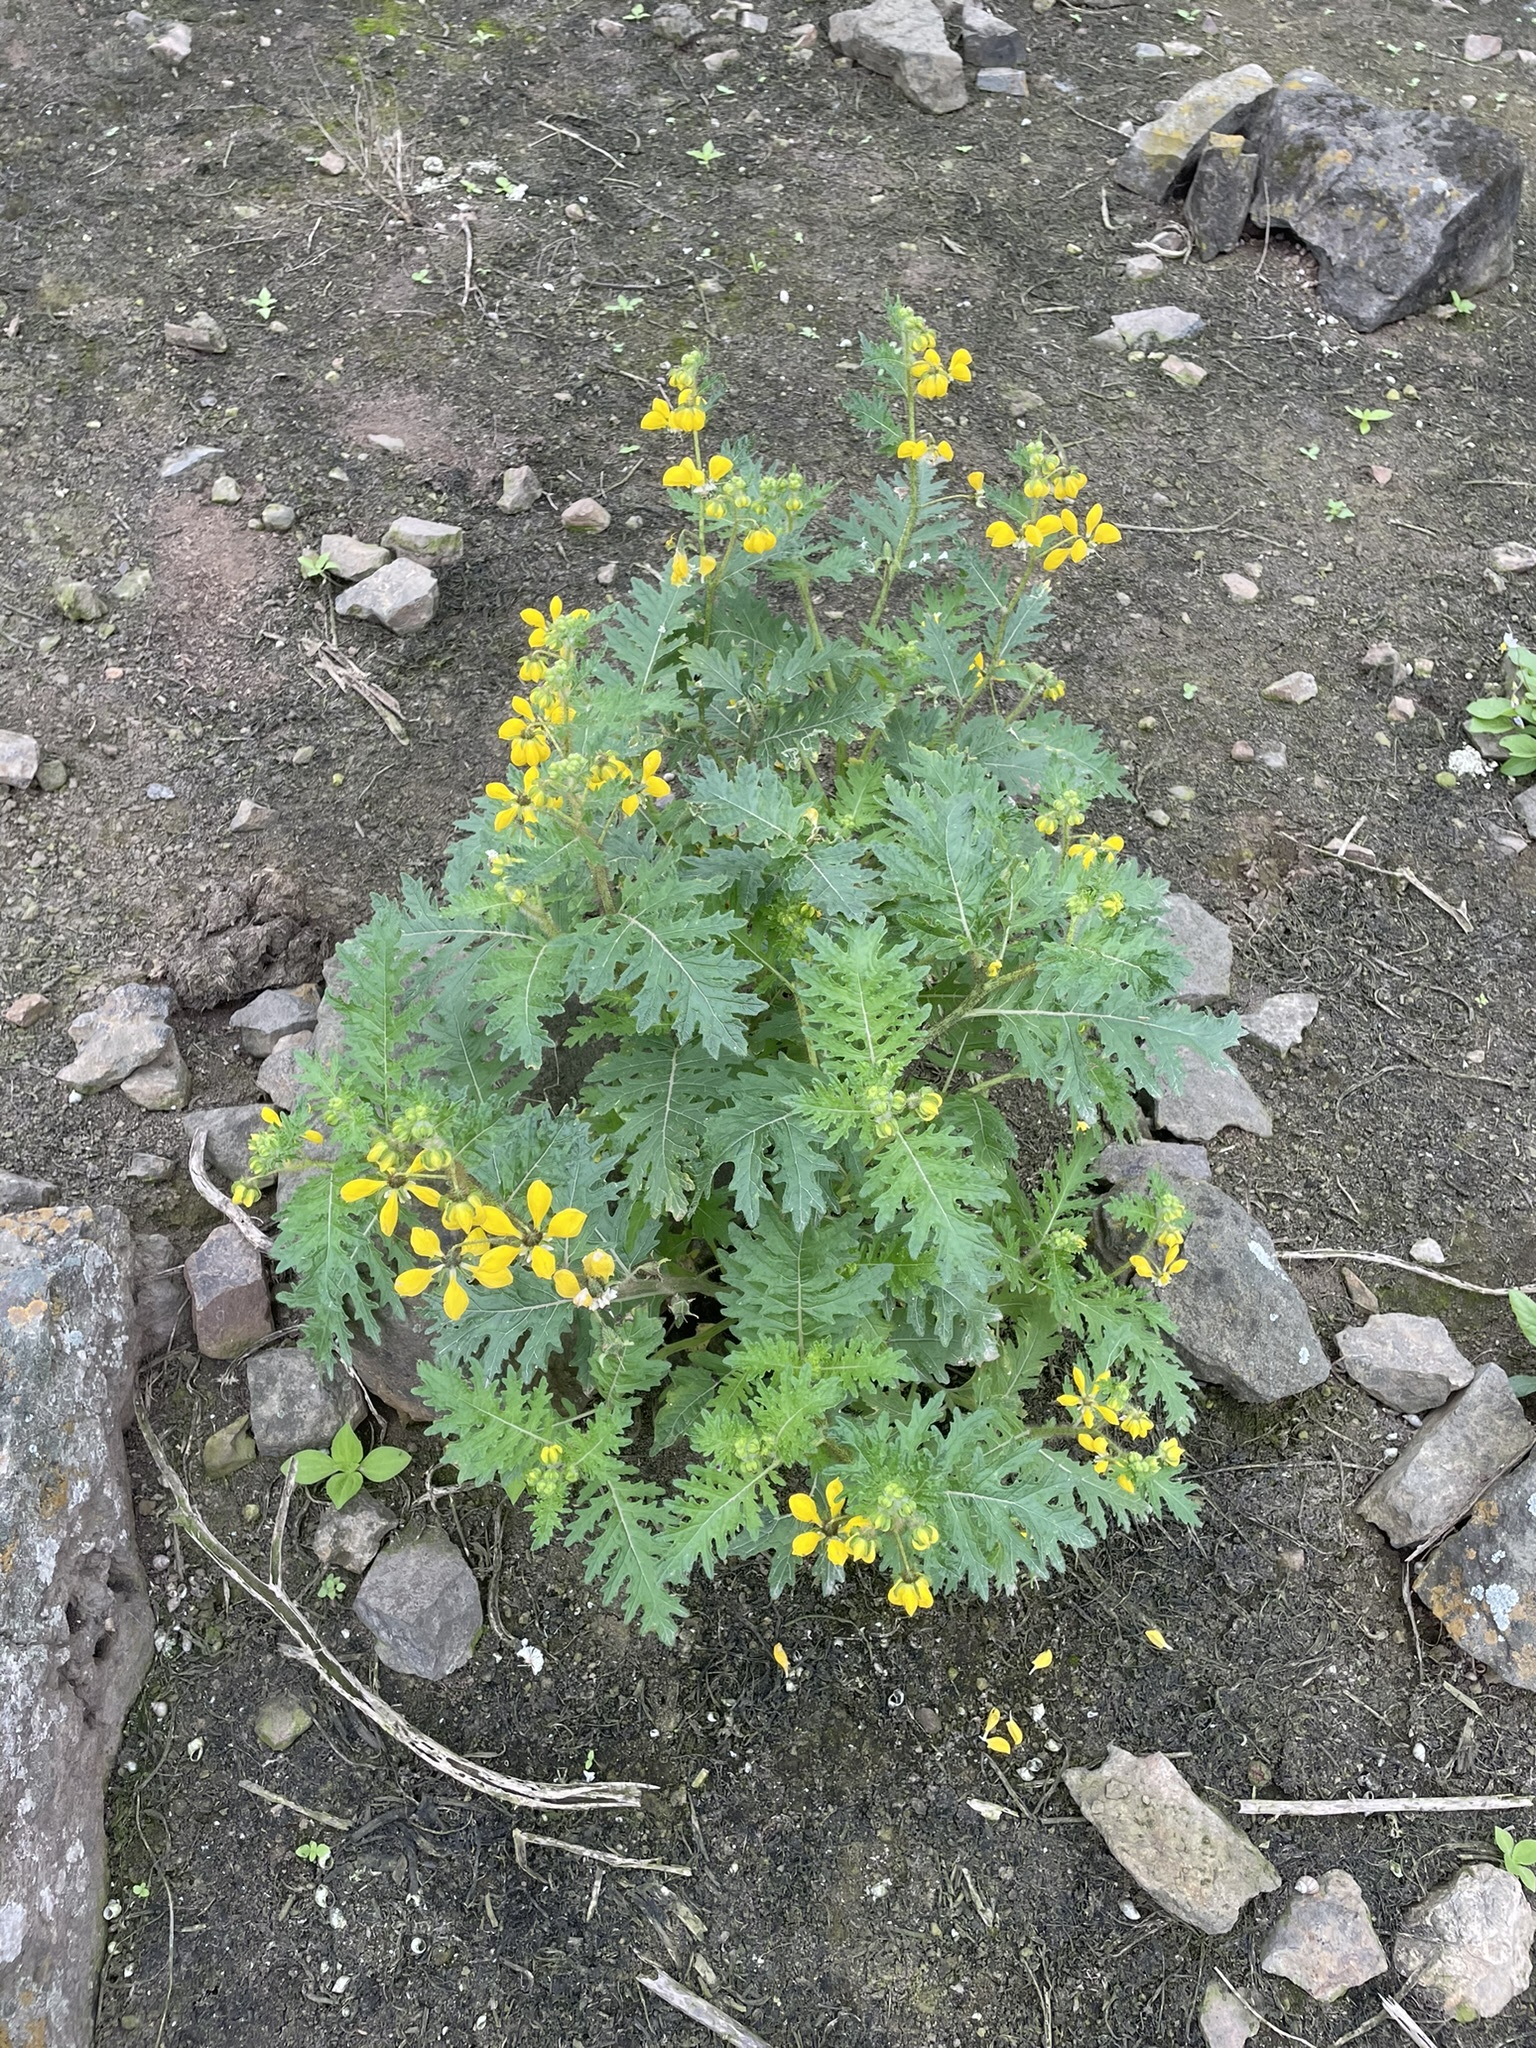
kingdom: Plantae
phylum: Tracheophyta
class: Magnoliopsida
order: Cornales
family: Loasaceae
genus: Nasa
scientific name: Nasa urens
